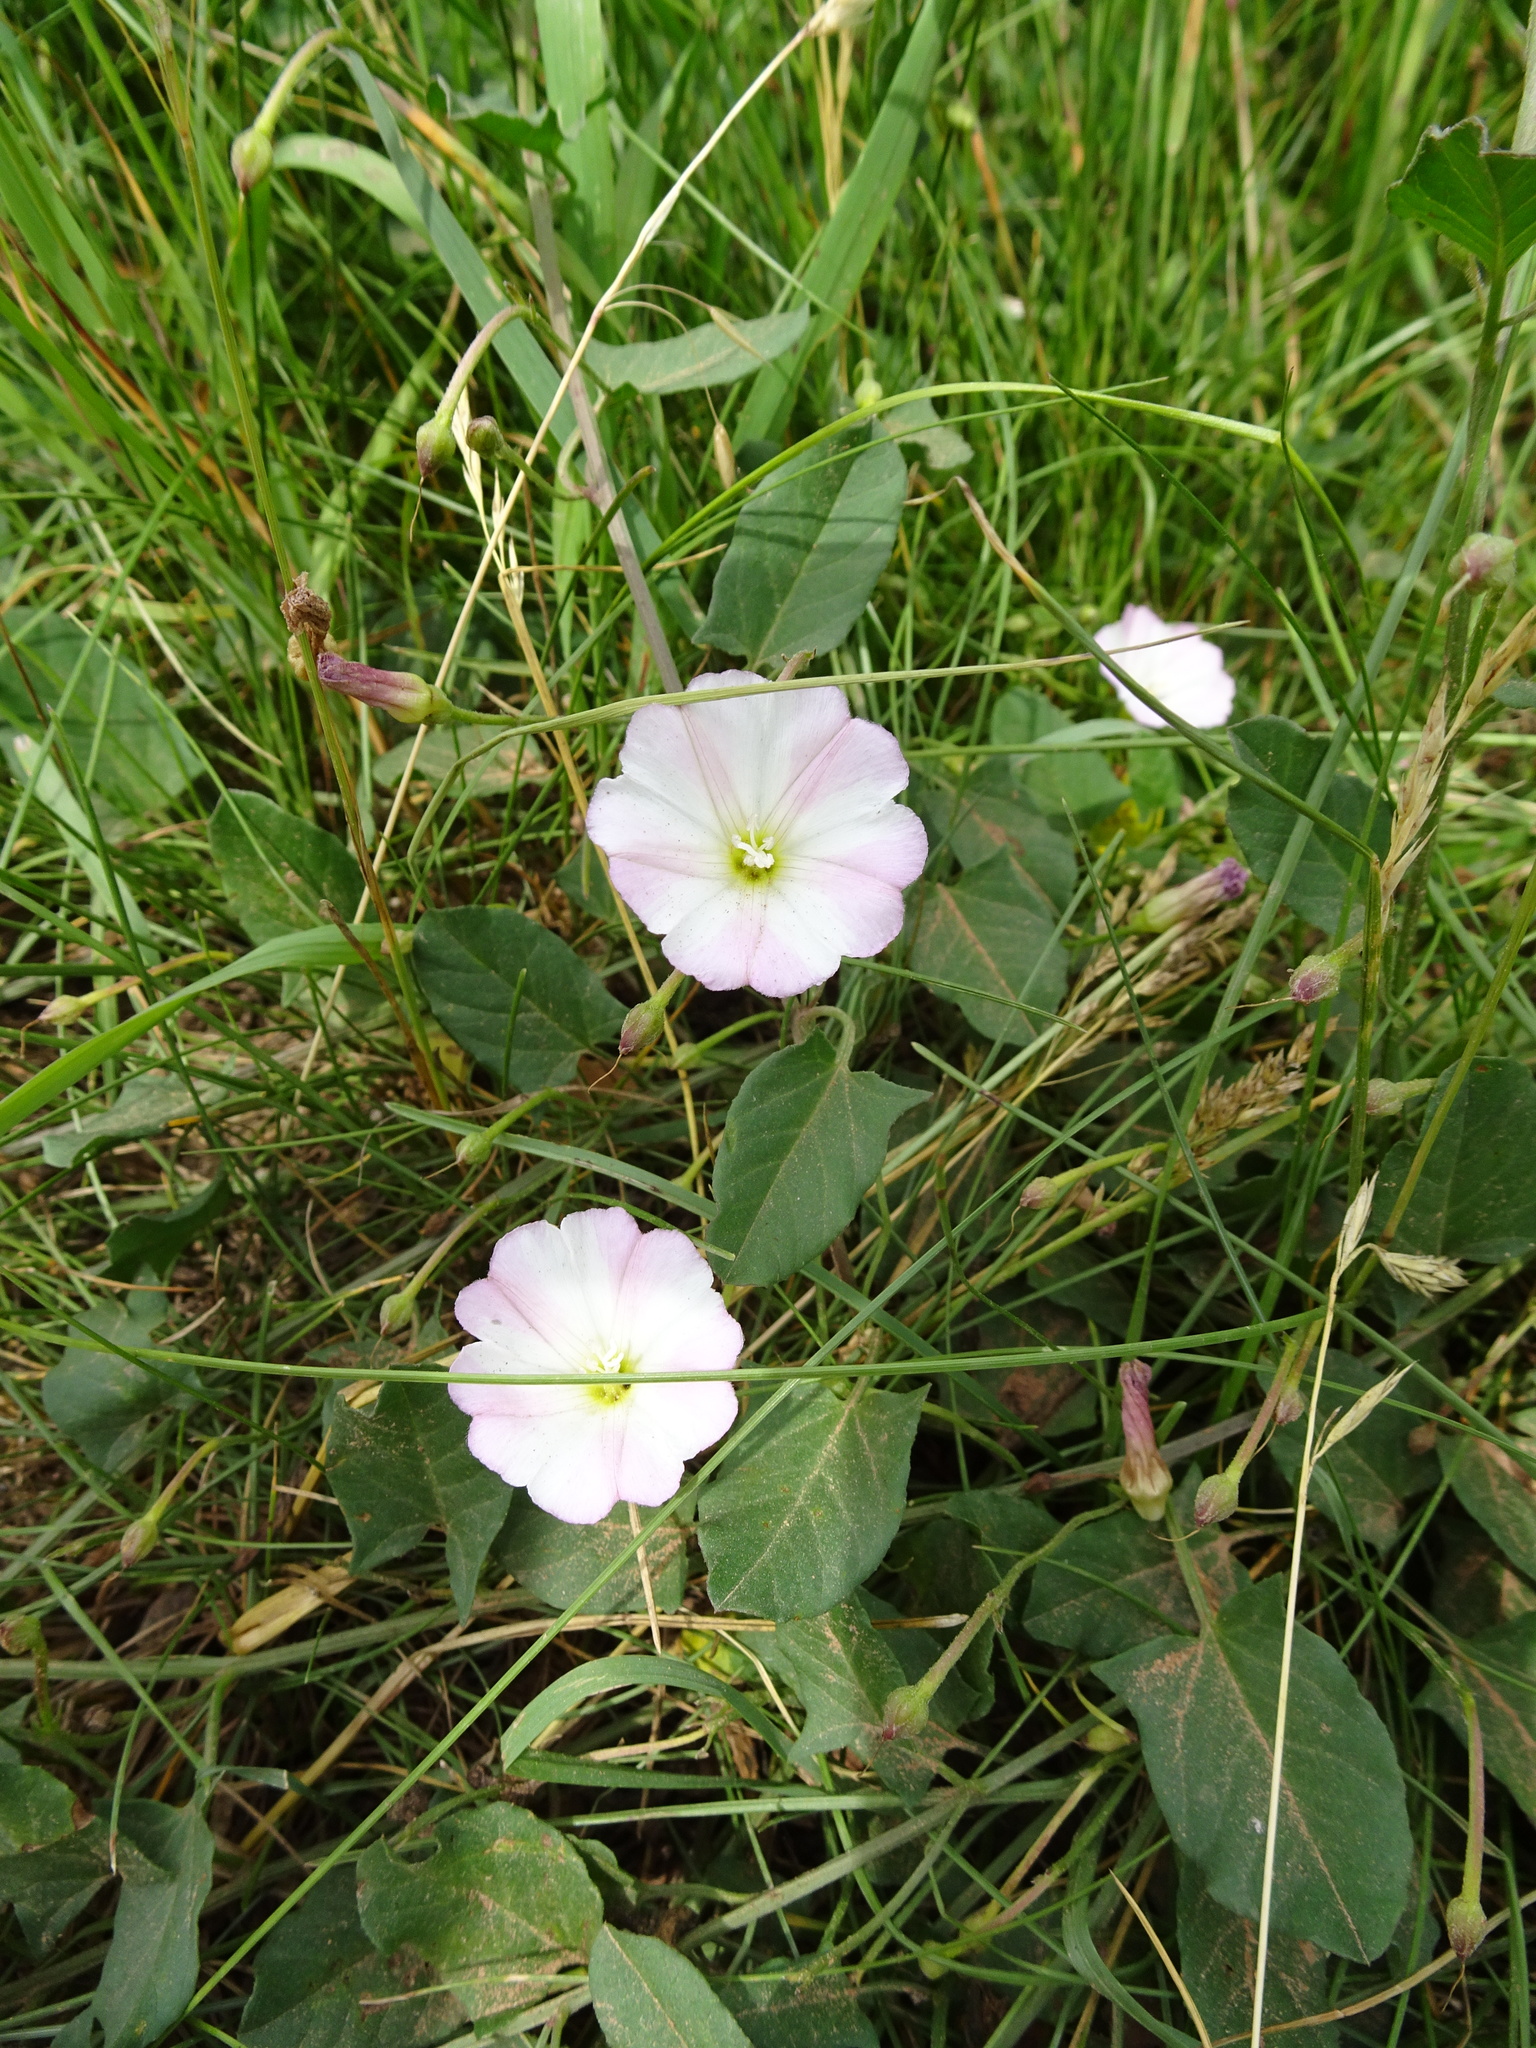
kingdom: Plantae
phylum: Tracheophyta
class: Magnoliopsida
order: Solanales
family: Convolvulaceae
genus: Convolvulus
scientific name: Convolvulus arvensis
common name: Field bindweed
